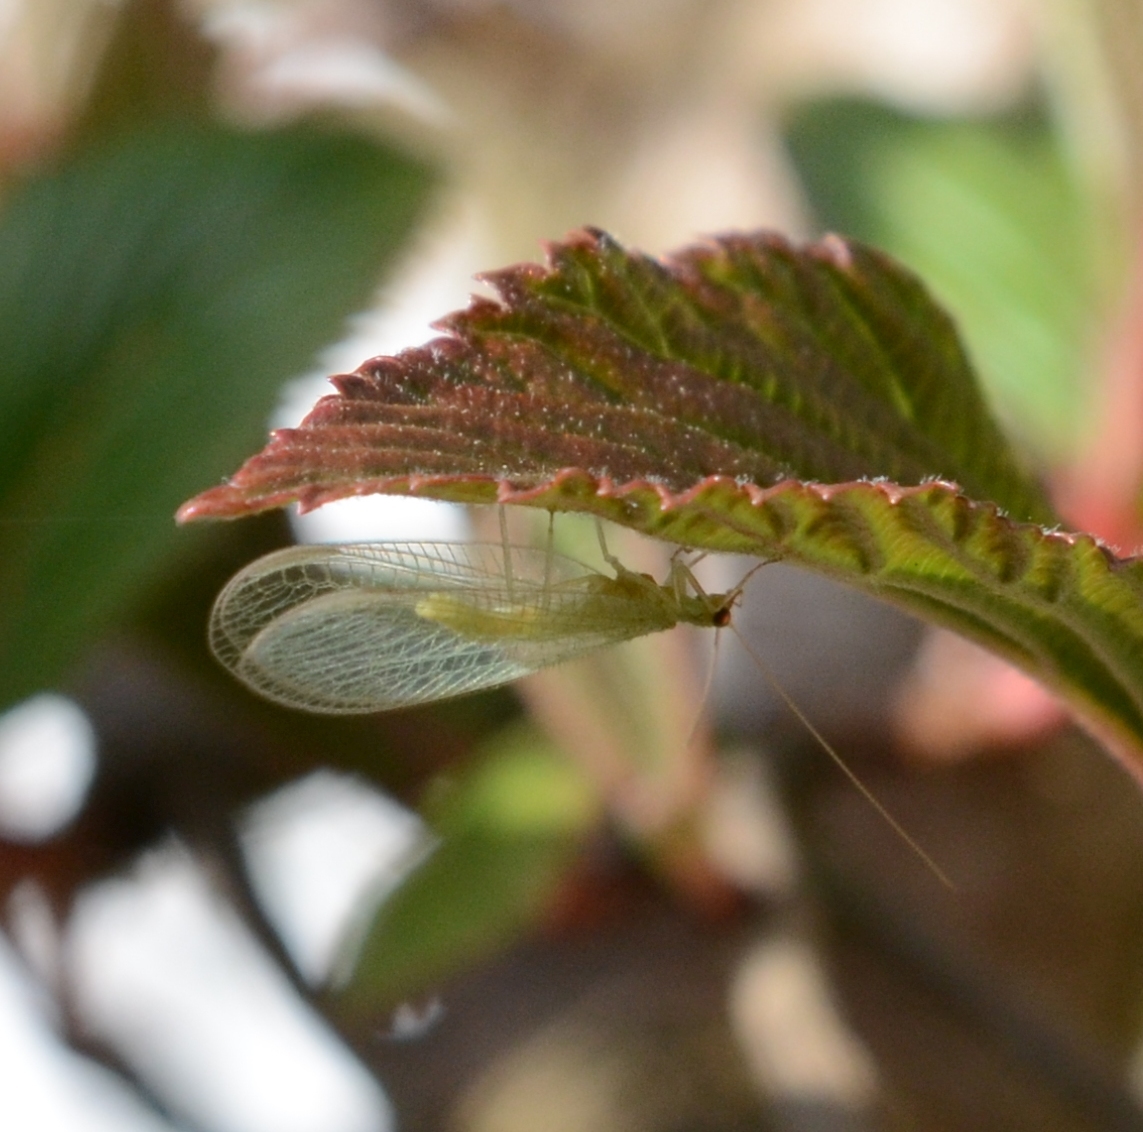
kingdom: Animalia
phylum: Arthropoda
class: Insecta
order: Neuroptera
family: Chrysopidae
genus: Chrysoperla
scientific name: Chrysoperla
